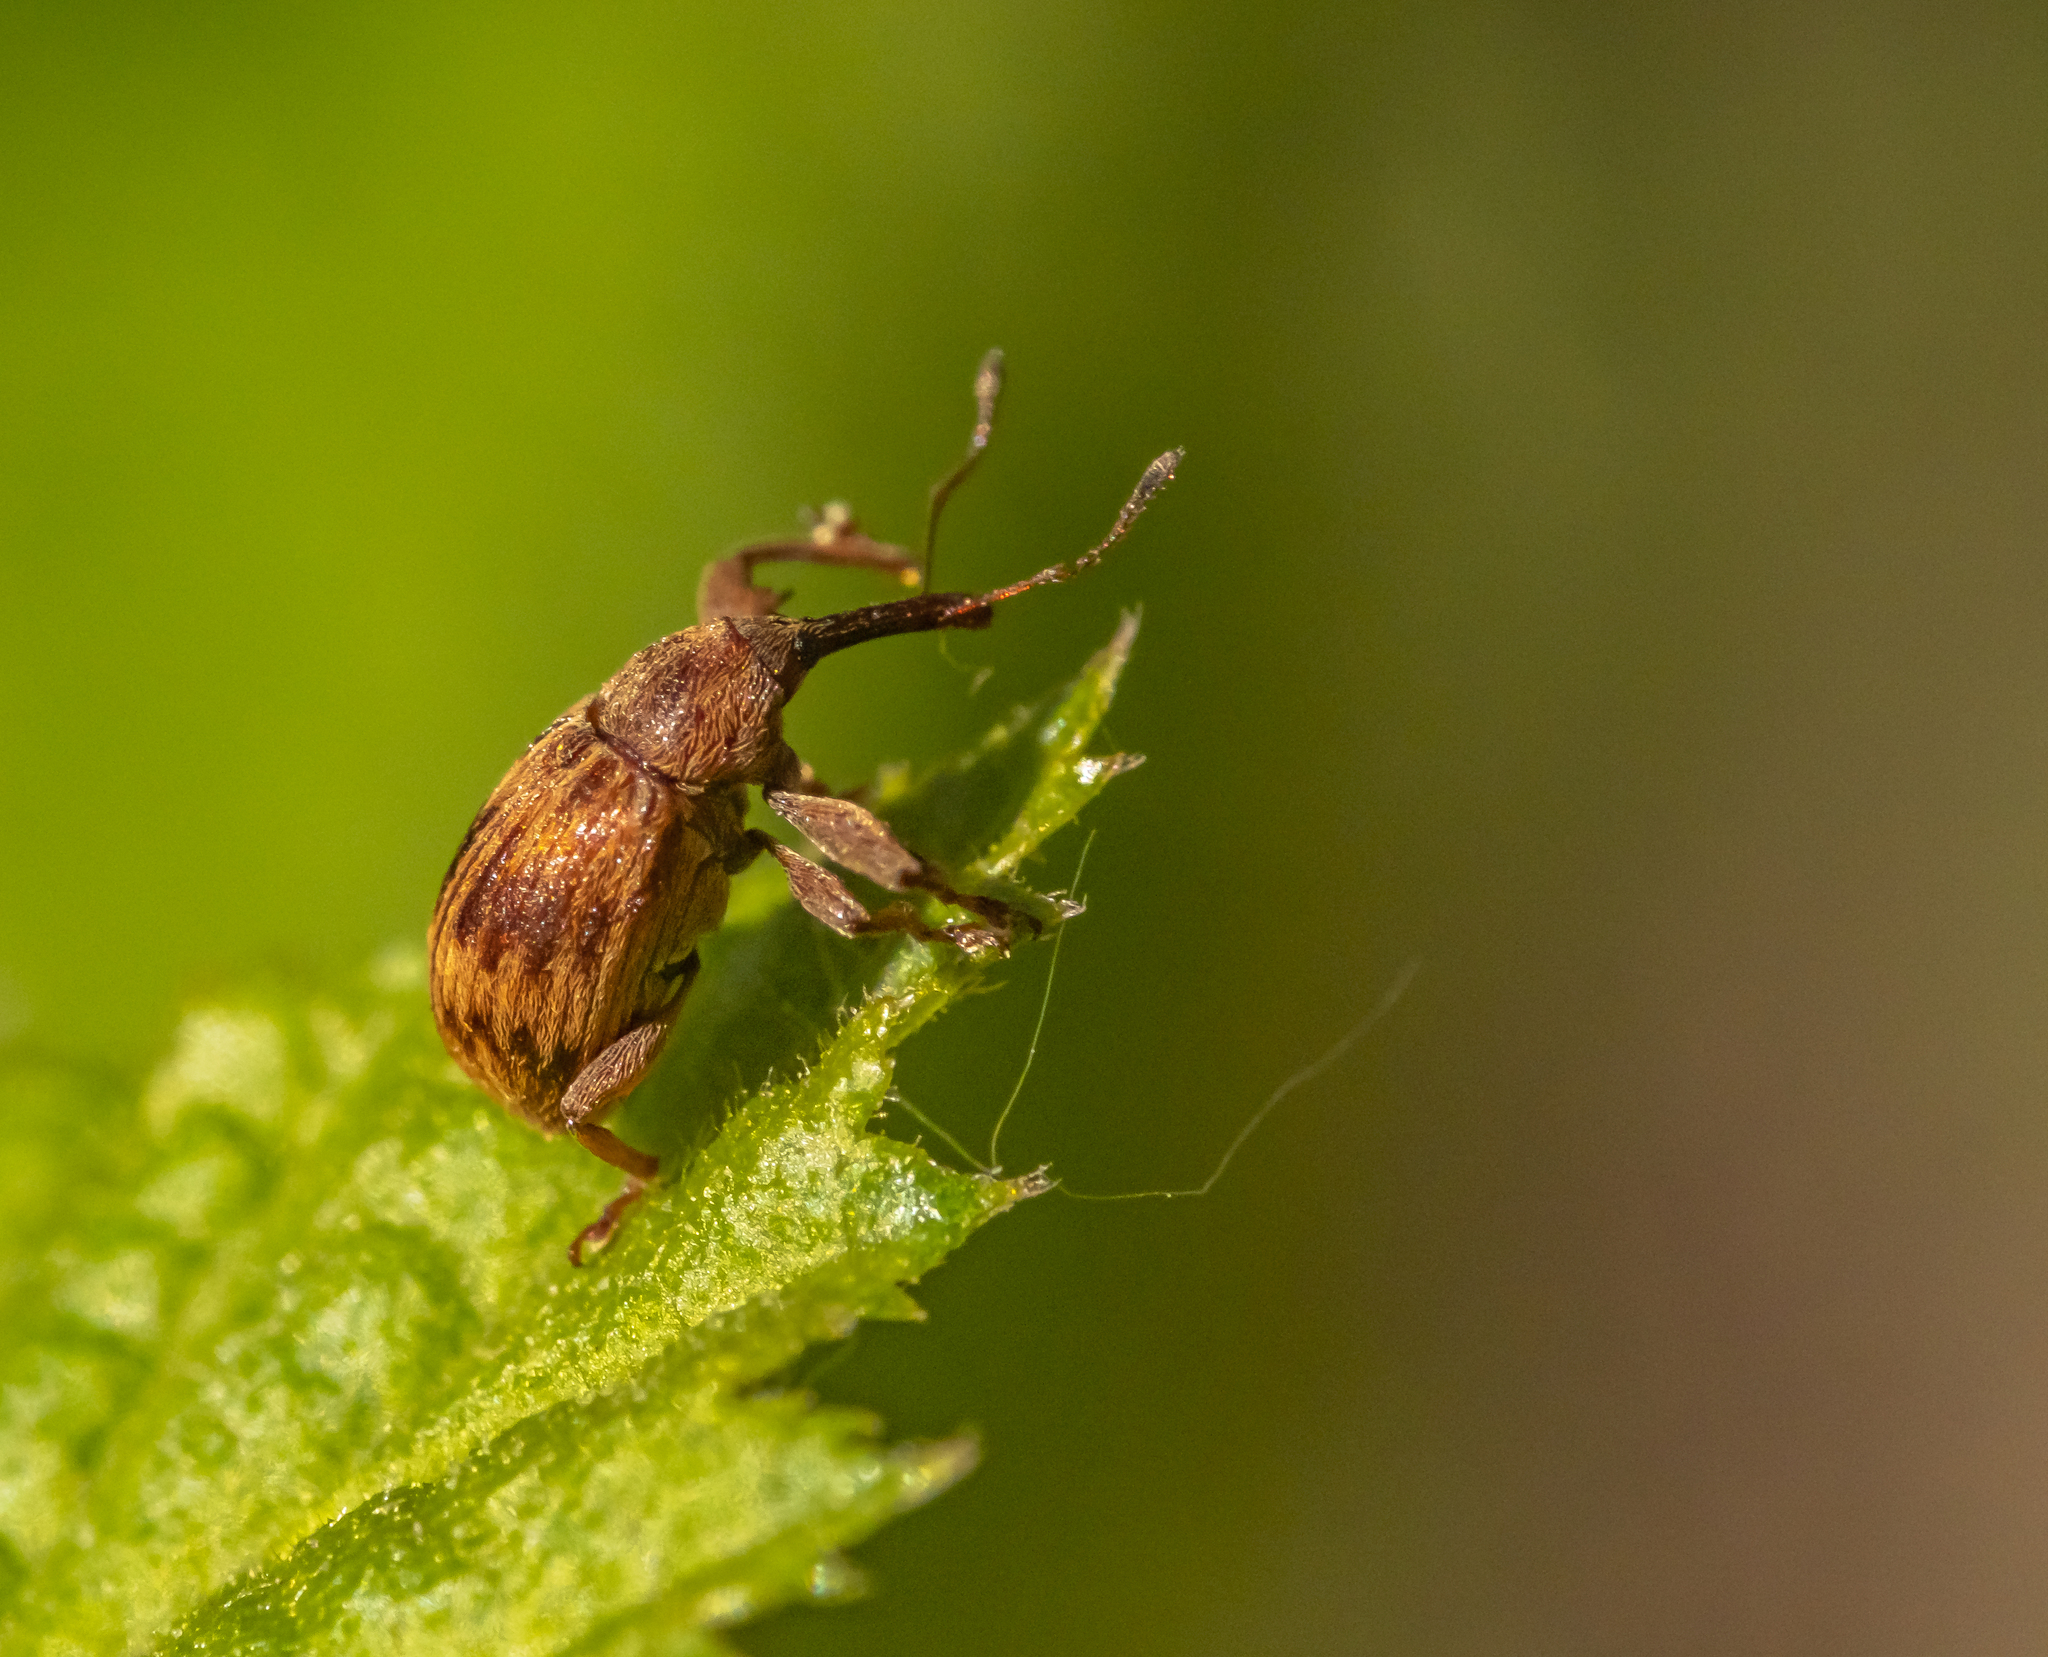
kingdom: Animalia
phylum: Arthropoda
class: Insecta
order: Coleoptera
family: Curculionidae
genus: Anthonomus
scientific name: Anthonomus rectirostris
